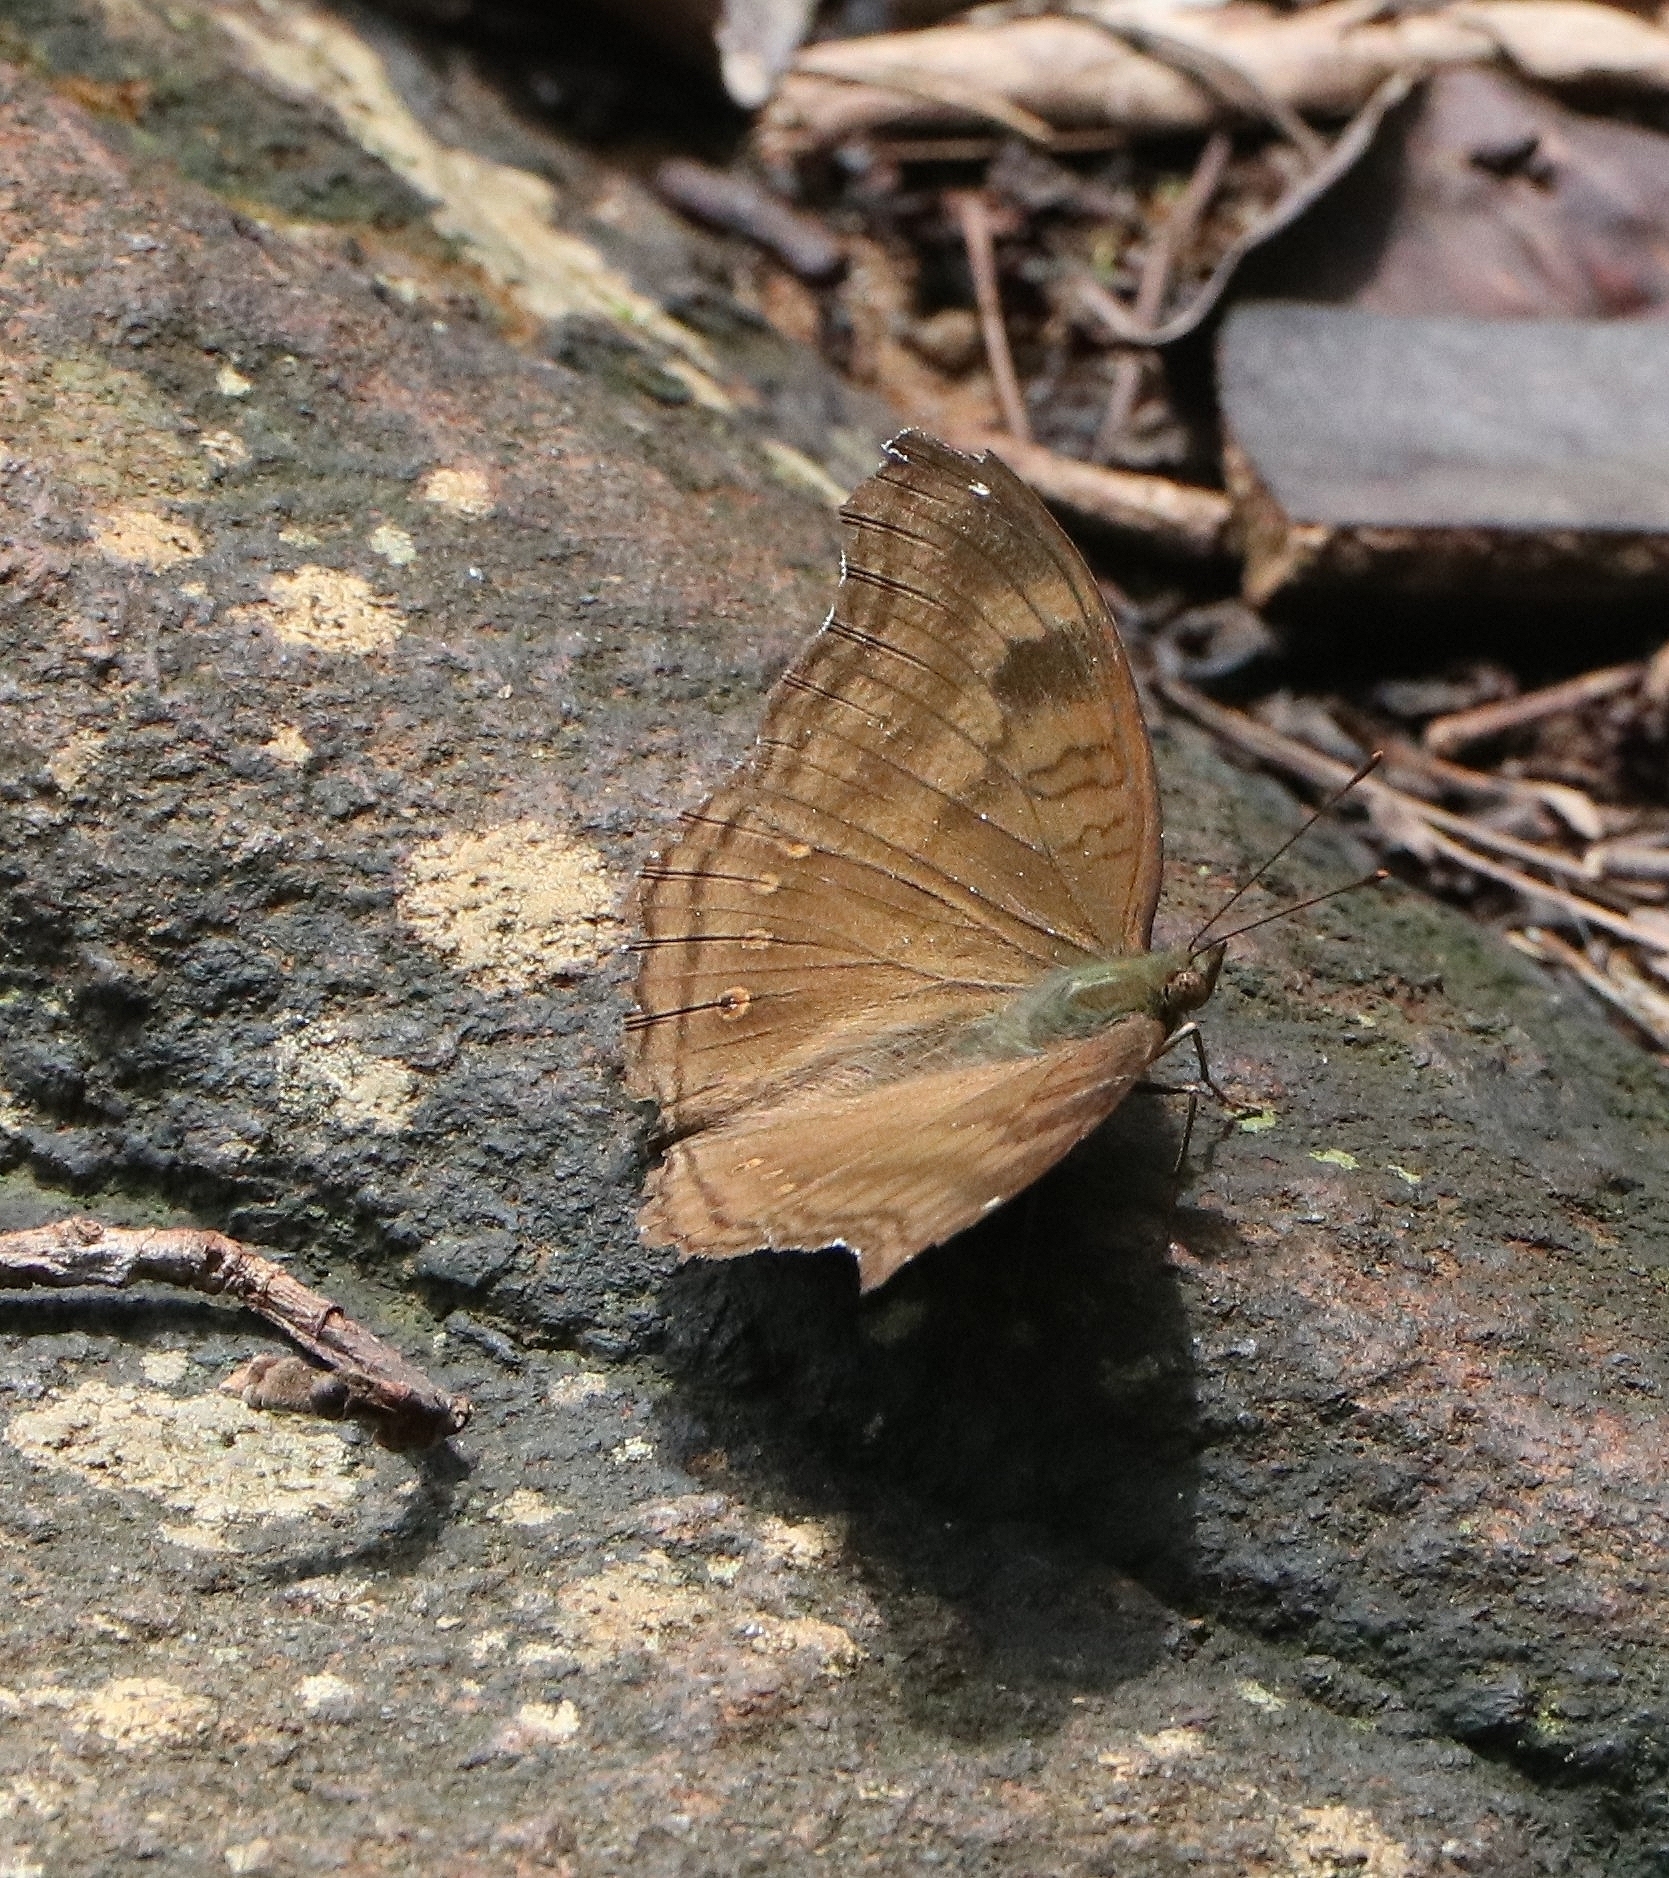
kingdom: Animalia
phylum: Arthropoda
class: Insecta
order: Lepidoptera
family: Nymphalidae
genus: Junonia
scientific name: Junonia iphita
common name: Chocolate pansy
